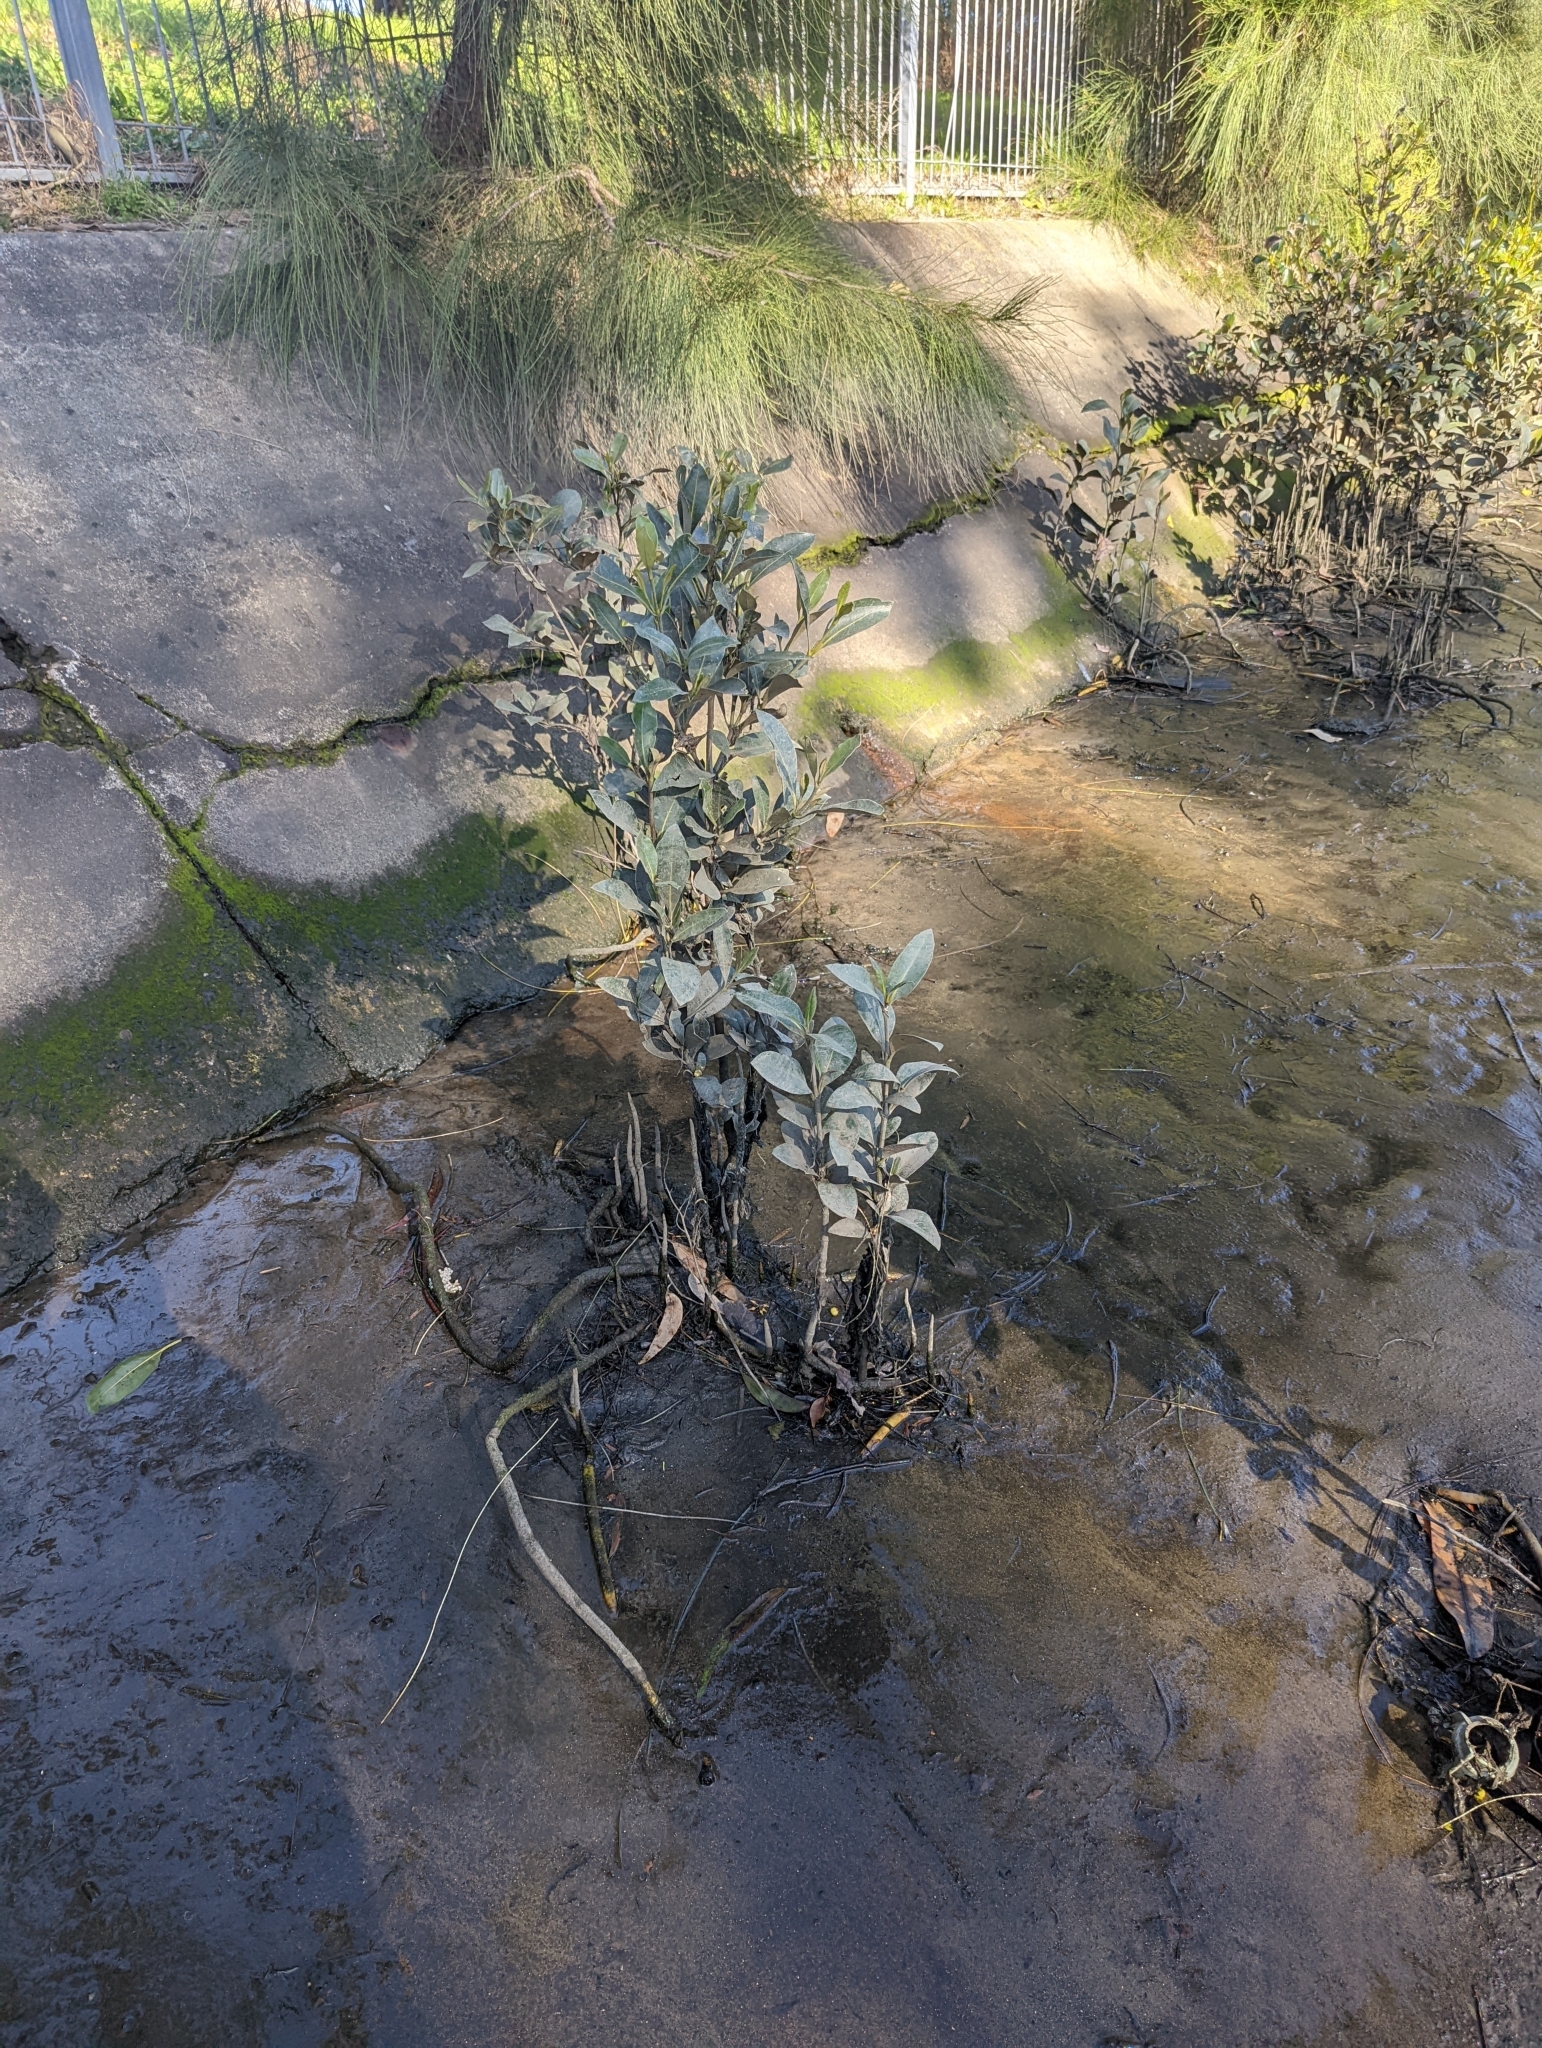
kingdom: Plantae
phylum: Tracheophyta
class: Magnoliopsida
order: Lamiales
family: Acanthaceae
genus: Avicennia
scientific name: Avicennia marina
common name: Gray mangrove
